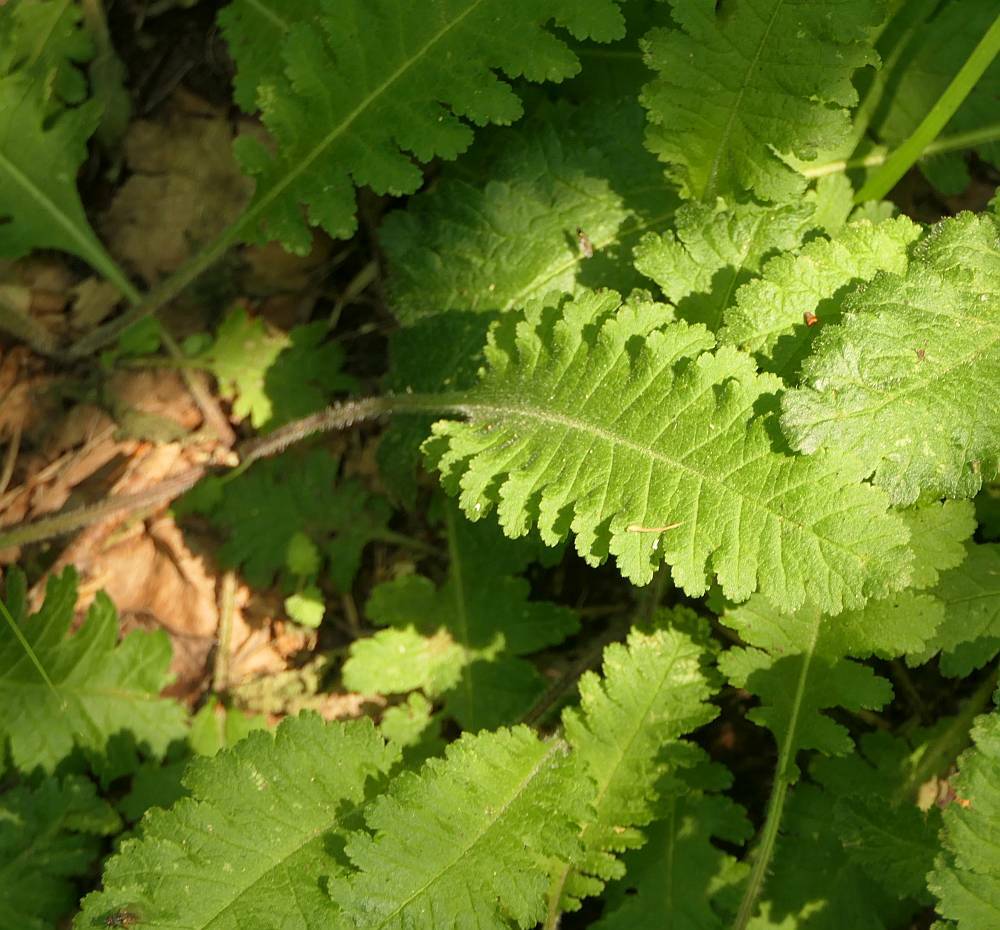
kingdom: Plantae
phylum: Tracheophyta
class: Magnoliopsida
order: Lamiales
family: Orobanchaceae
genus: Pedicularis
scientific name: Pedicularis canadensis
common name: Early lousewort
